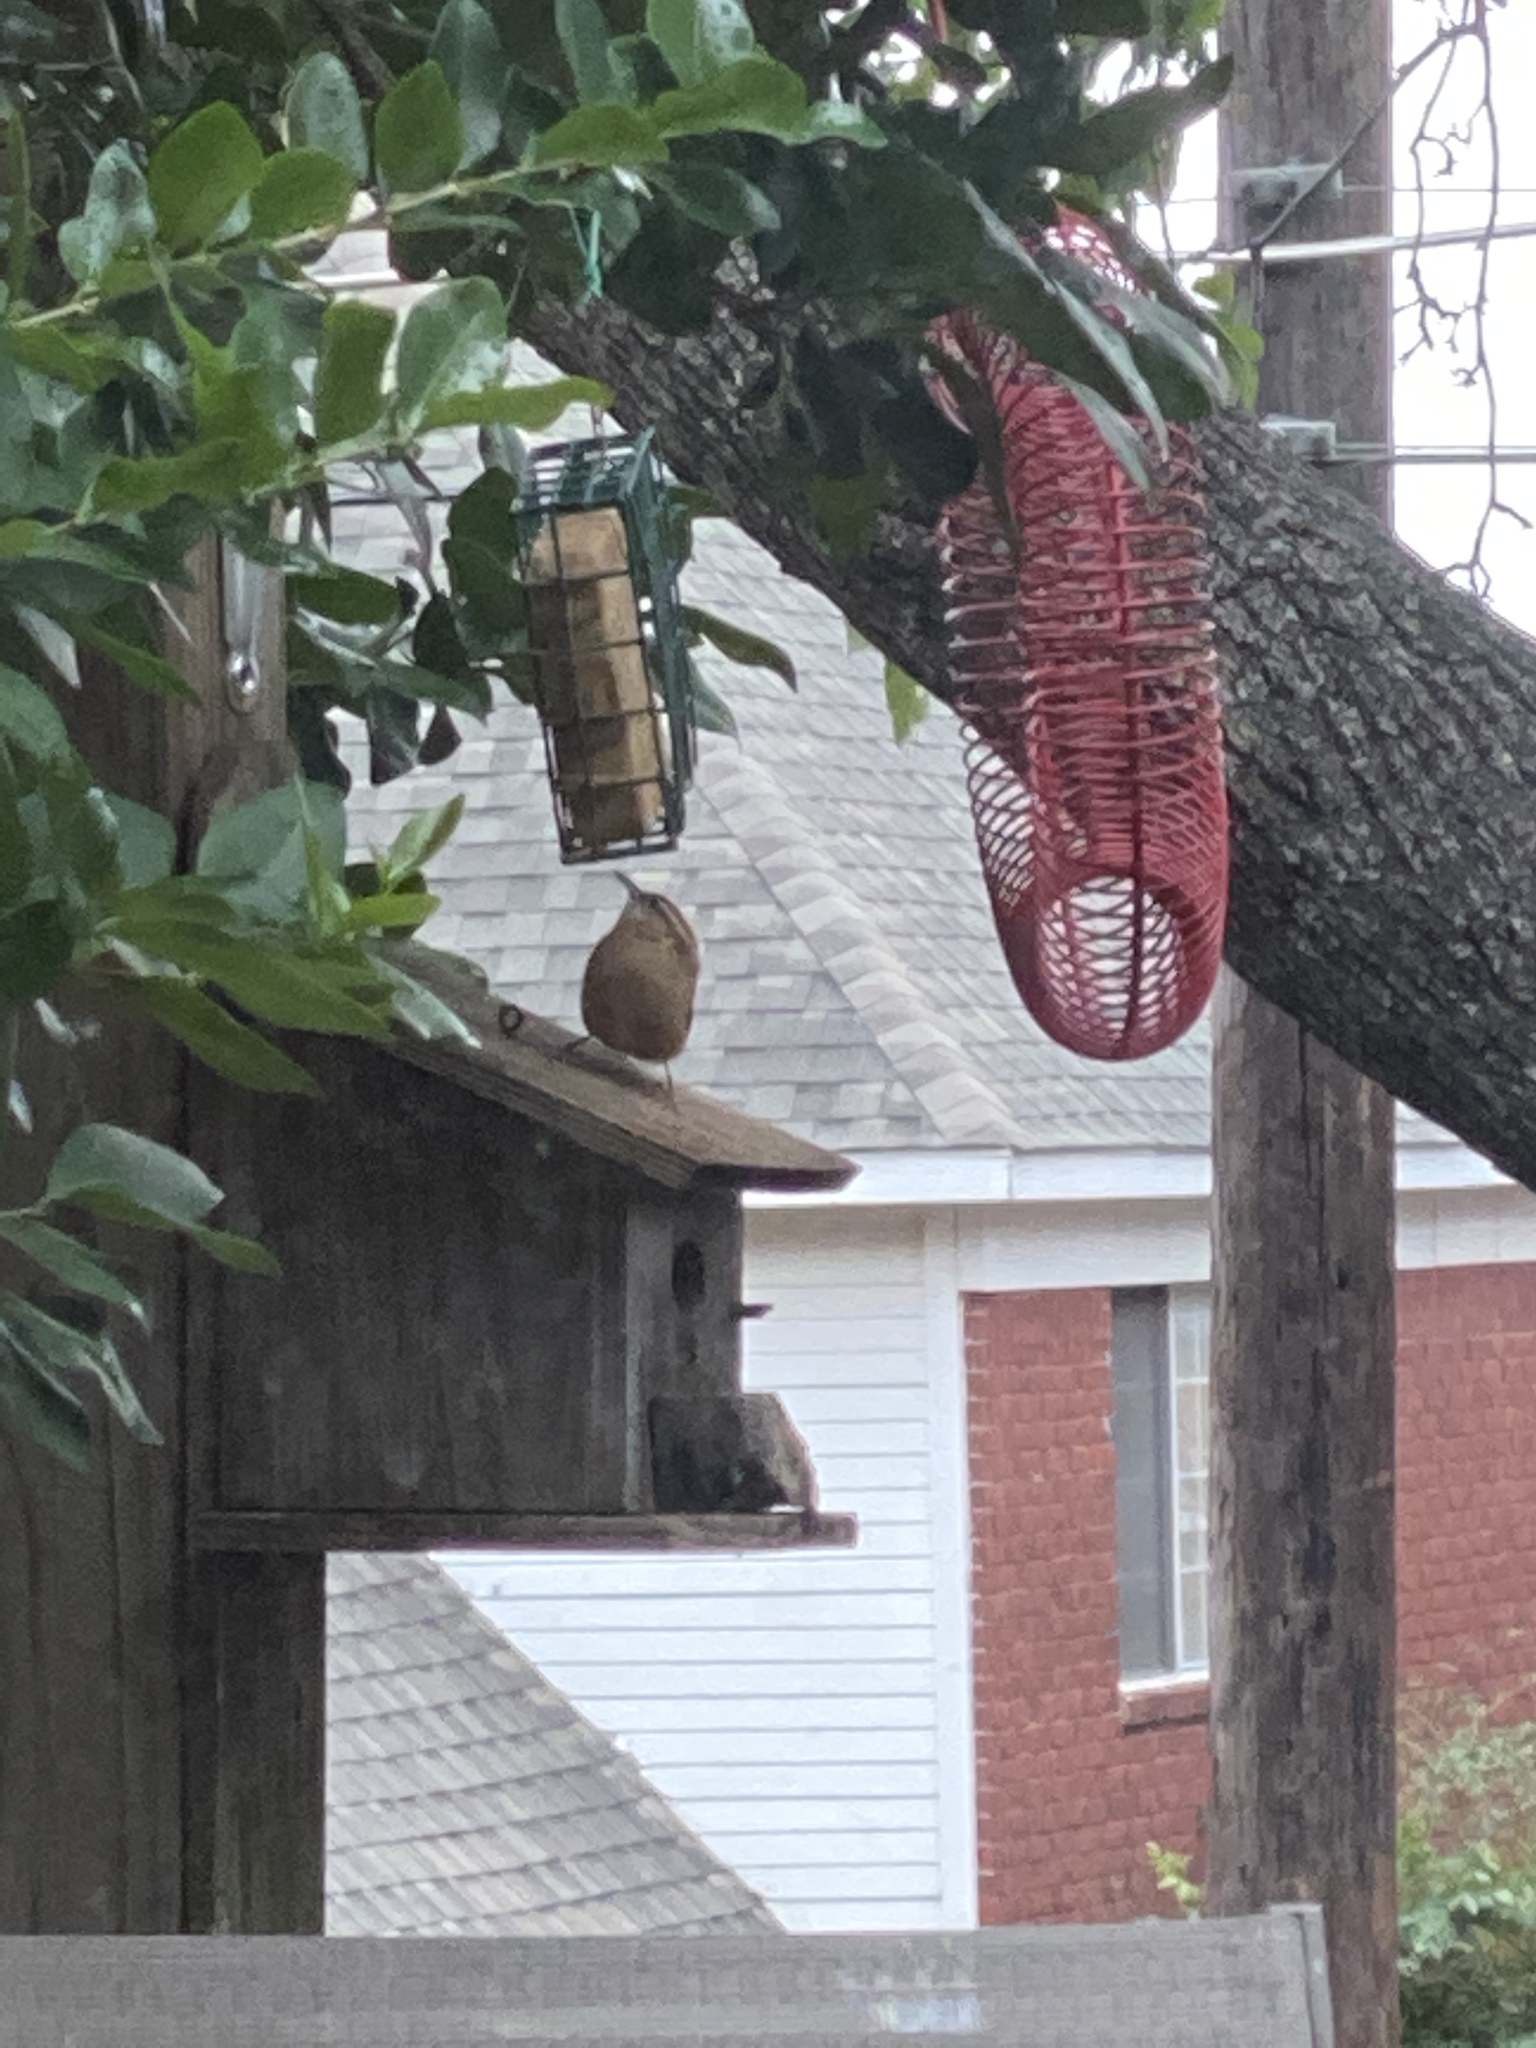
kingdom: Animalia
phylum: Chordata
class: Aves
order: Passeriformes
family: Troglodytidae
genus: Thryothorus
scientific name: Thryothorus ludovicianus
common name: Carolina wren
